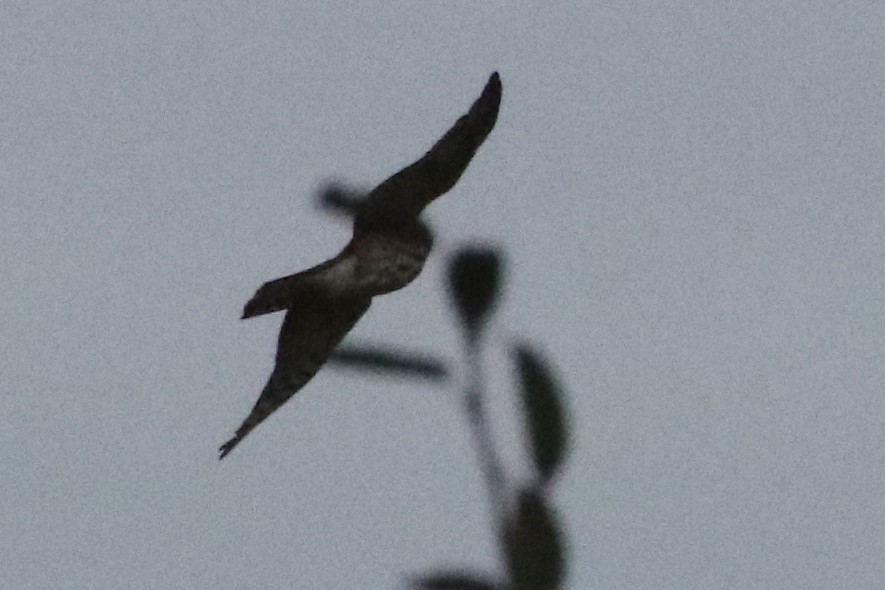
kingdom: Animalia
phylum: Chordata
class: Aves
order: Accipitriformes
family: Accipitridae
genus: Accipiter
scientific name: Accipiter striatus
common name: Sharp-shinned hawk
